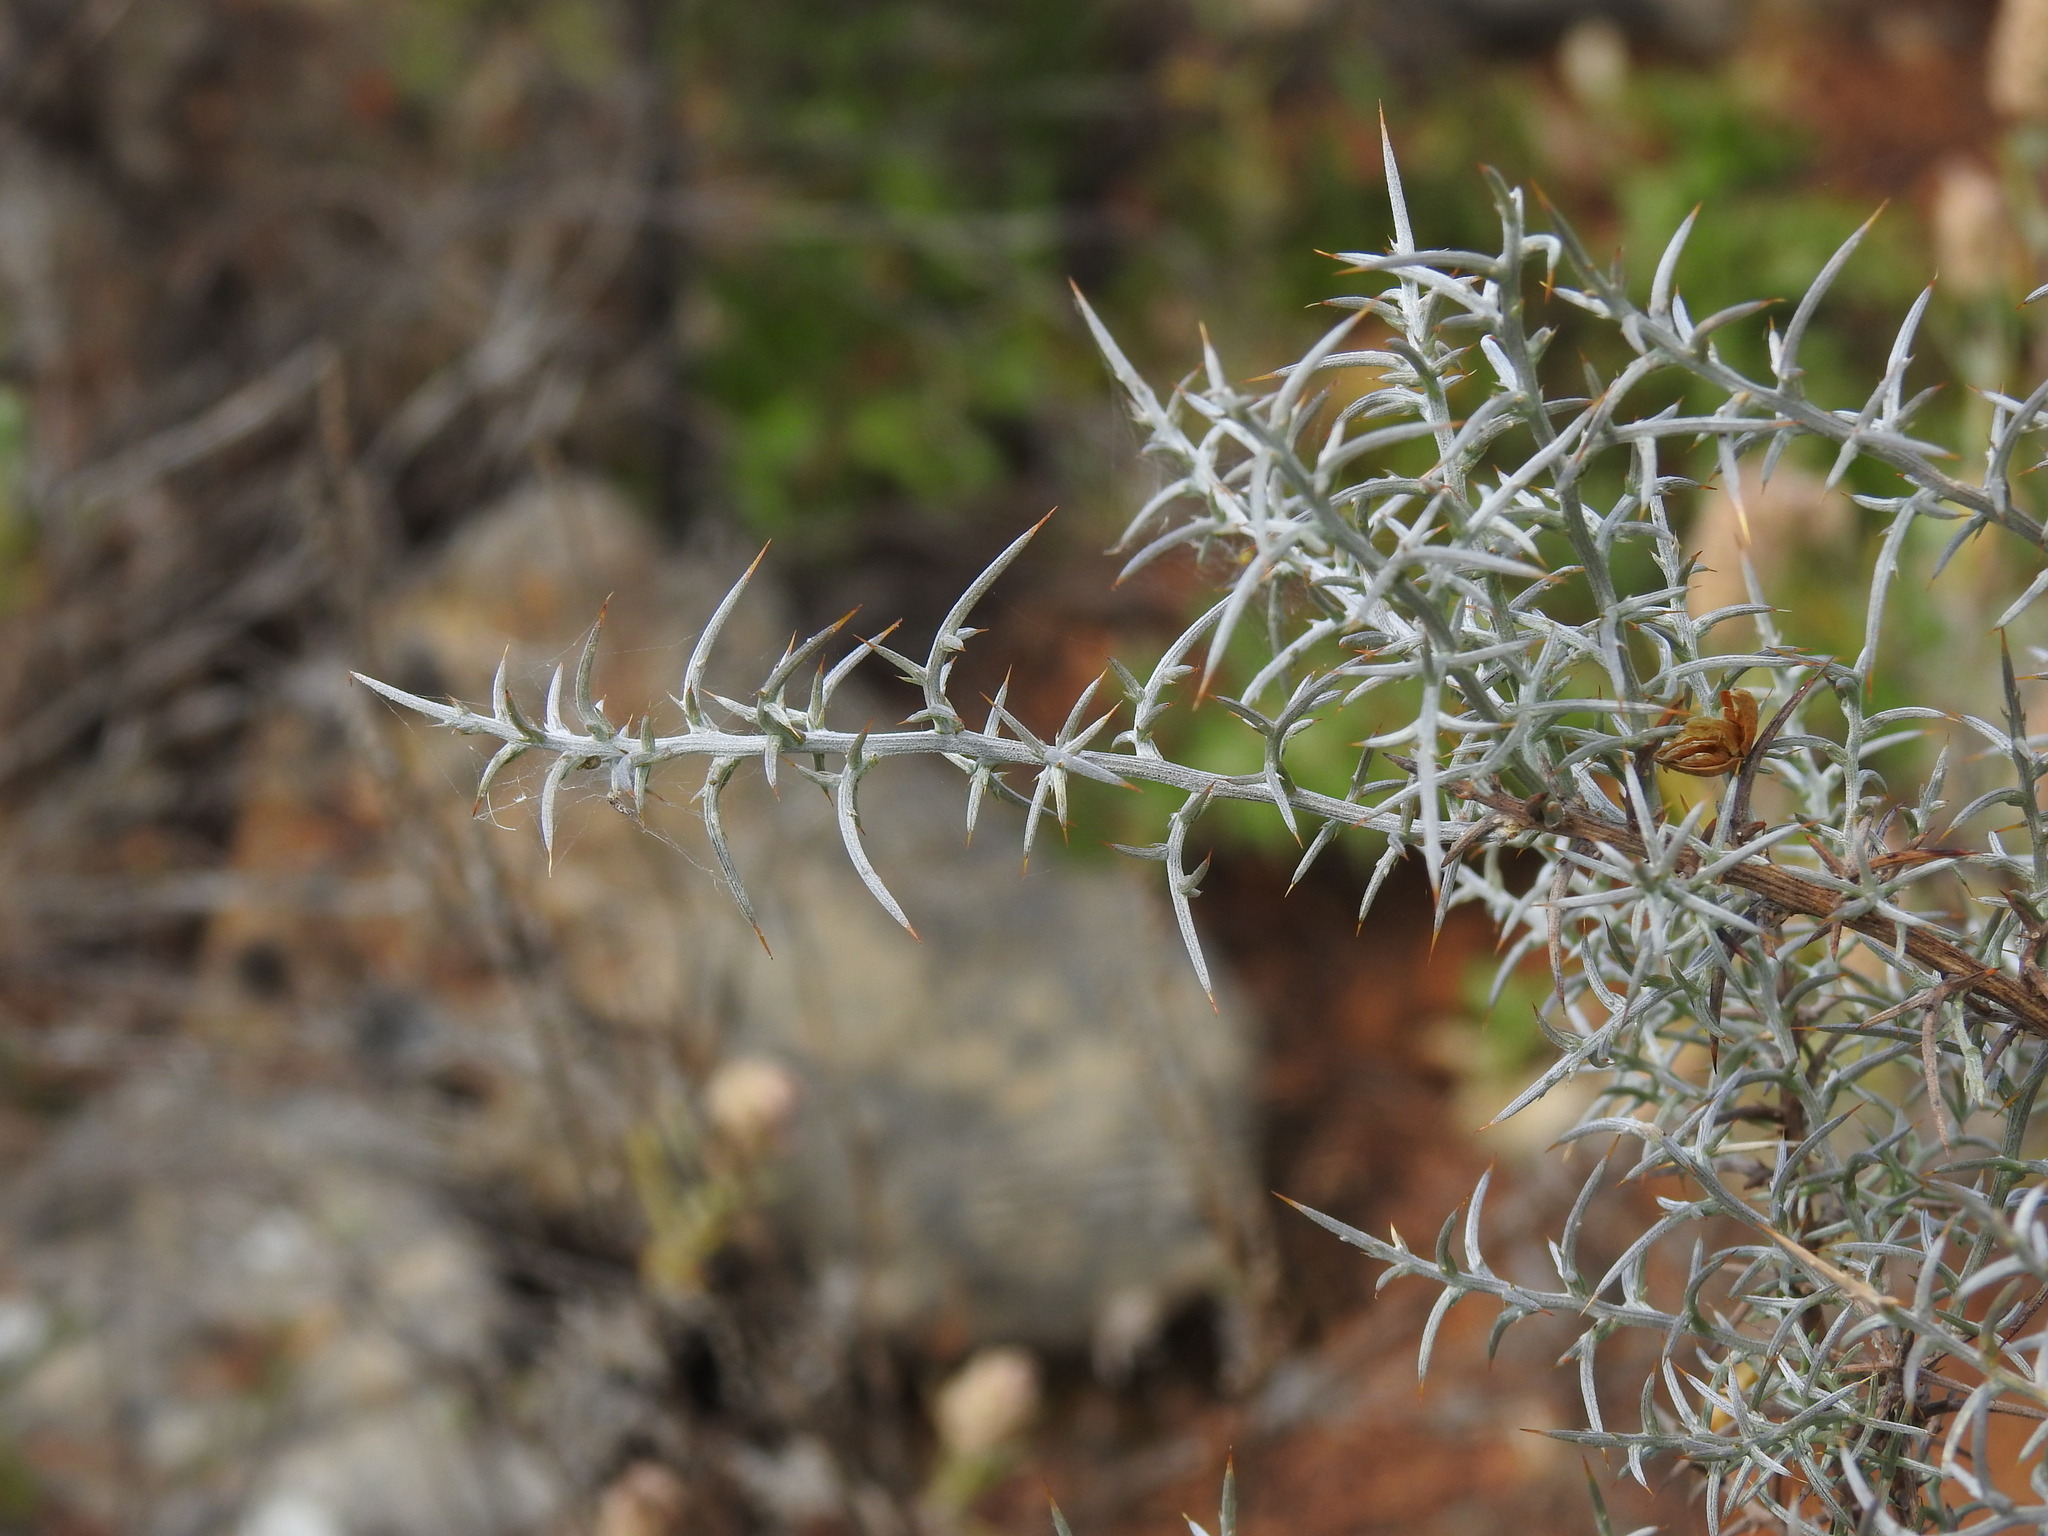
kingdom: Plantae
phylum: Tracheophyta
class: Magnoliopsida
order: Fabales
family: Fabaceae
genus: Ulex
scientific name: Ulex argenteus
